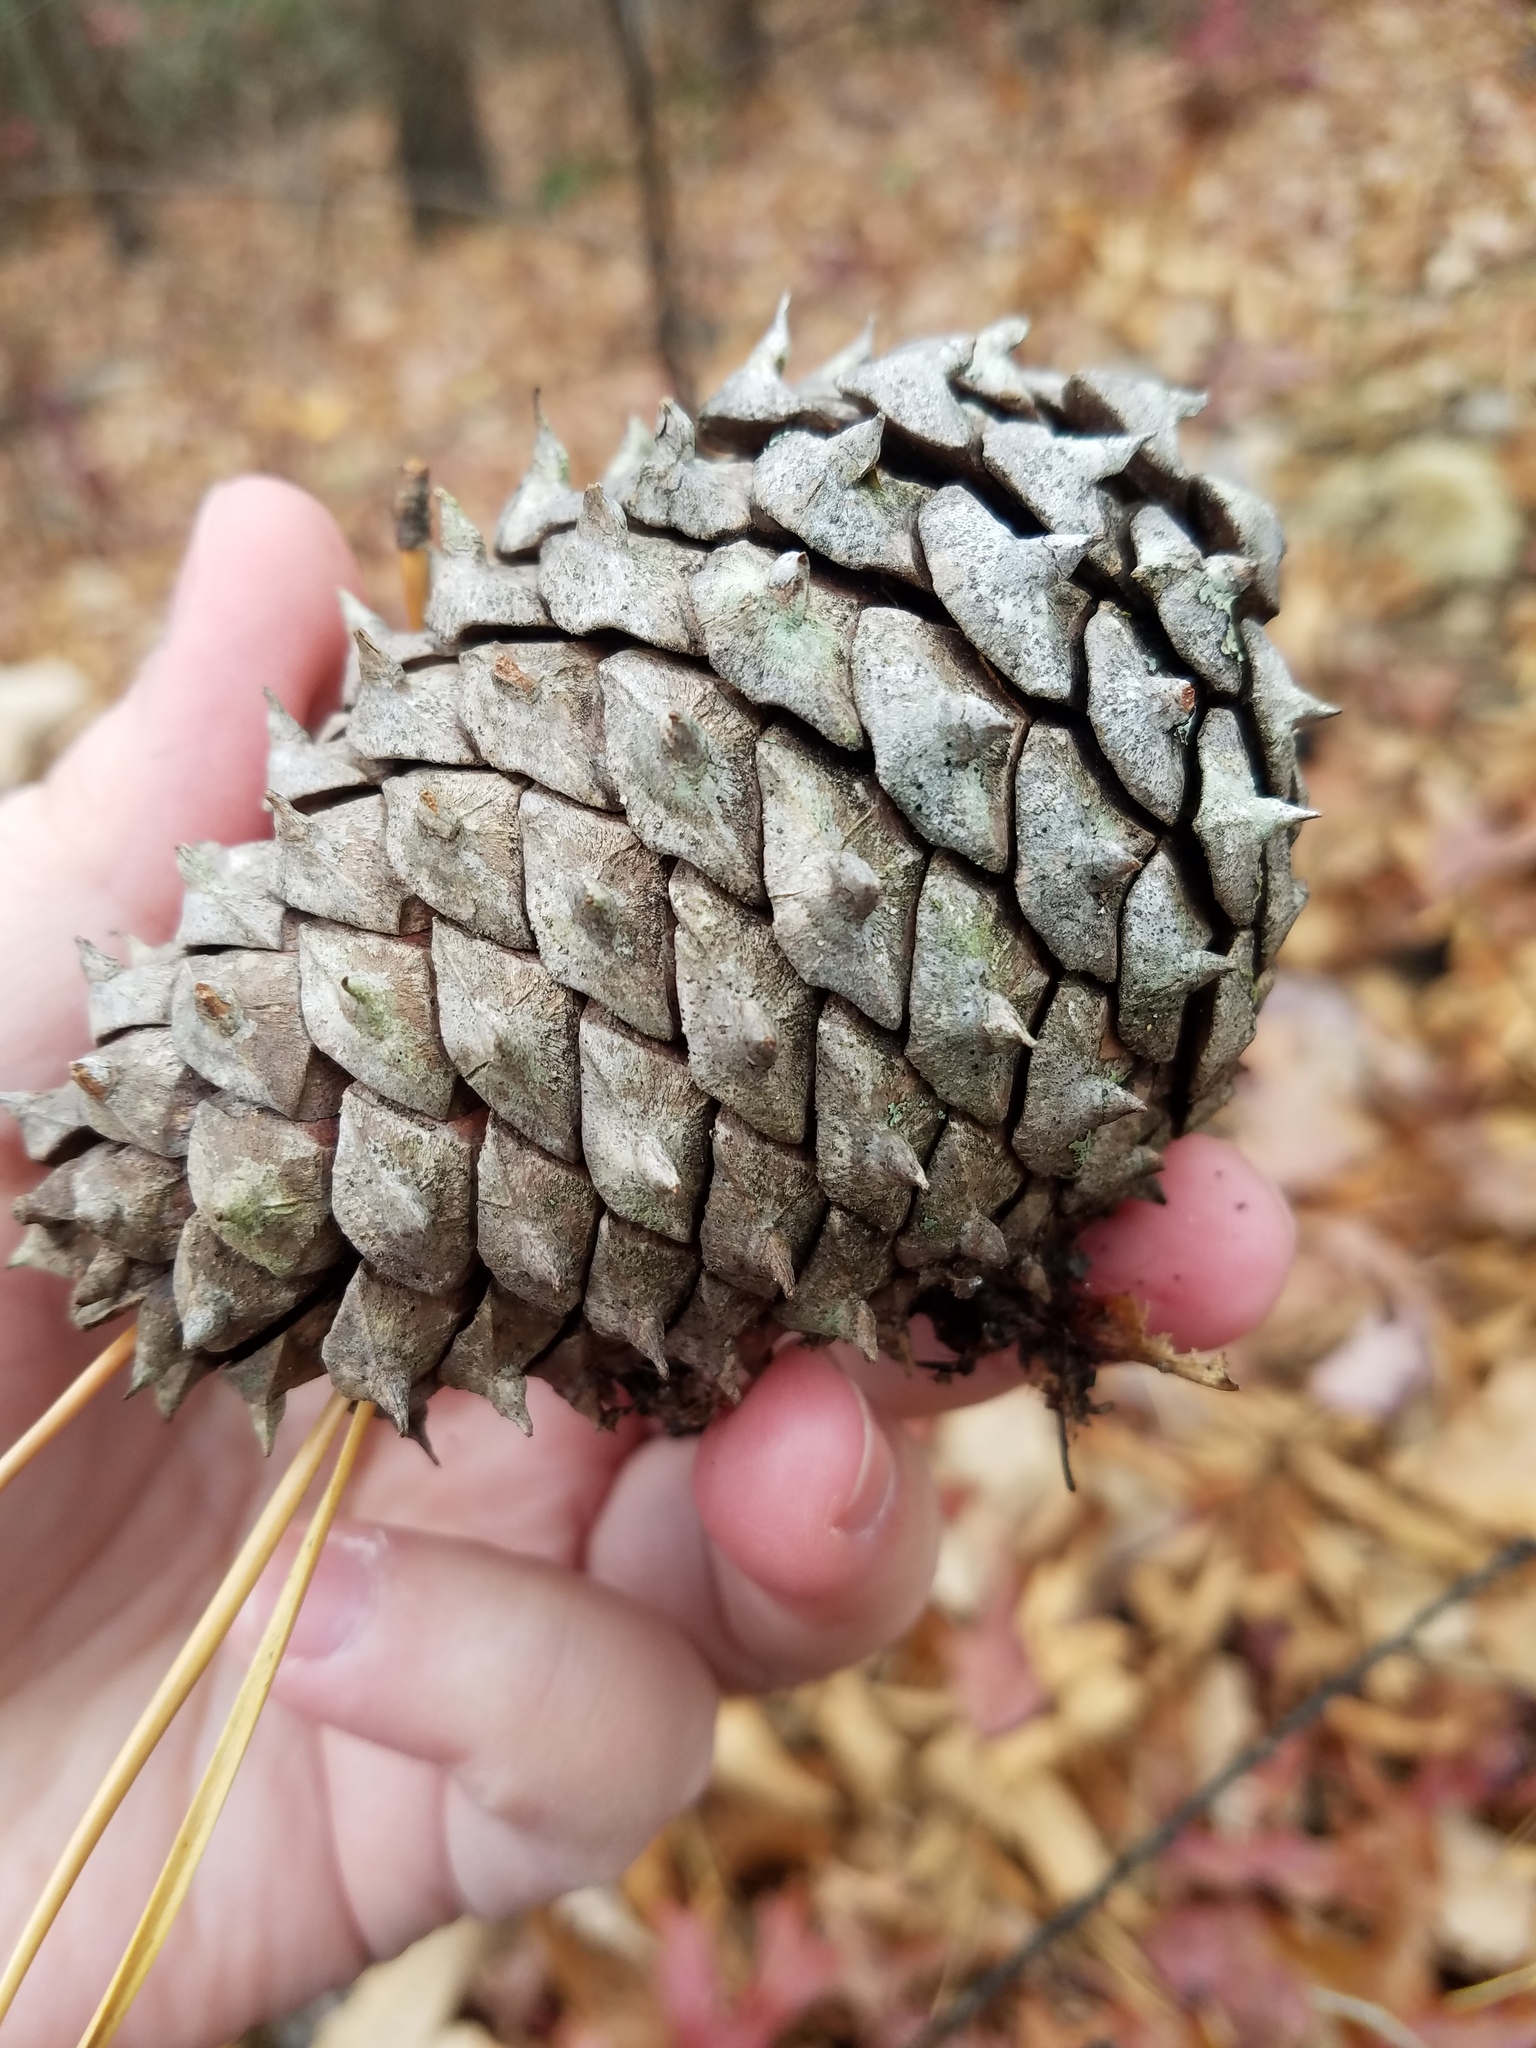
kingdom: Plantae
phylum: Tracheophyta
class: Pinopsida
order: Pinales
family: Pinaceae
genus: Pinus
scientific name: Pinus pungens
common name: Hickory pine
